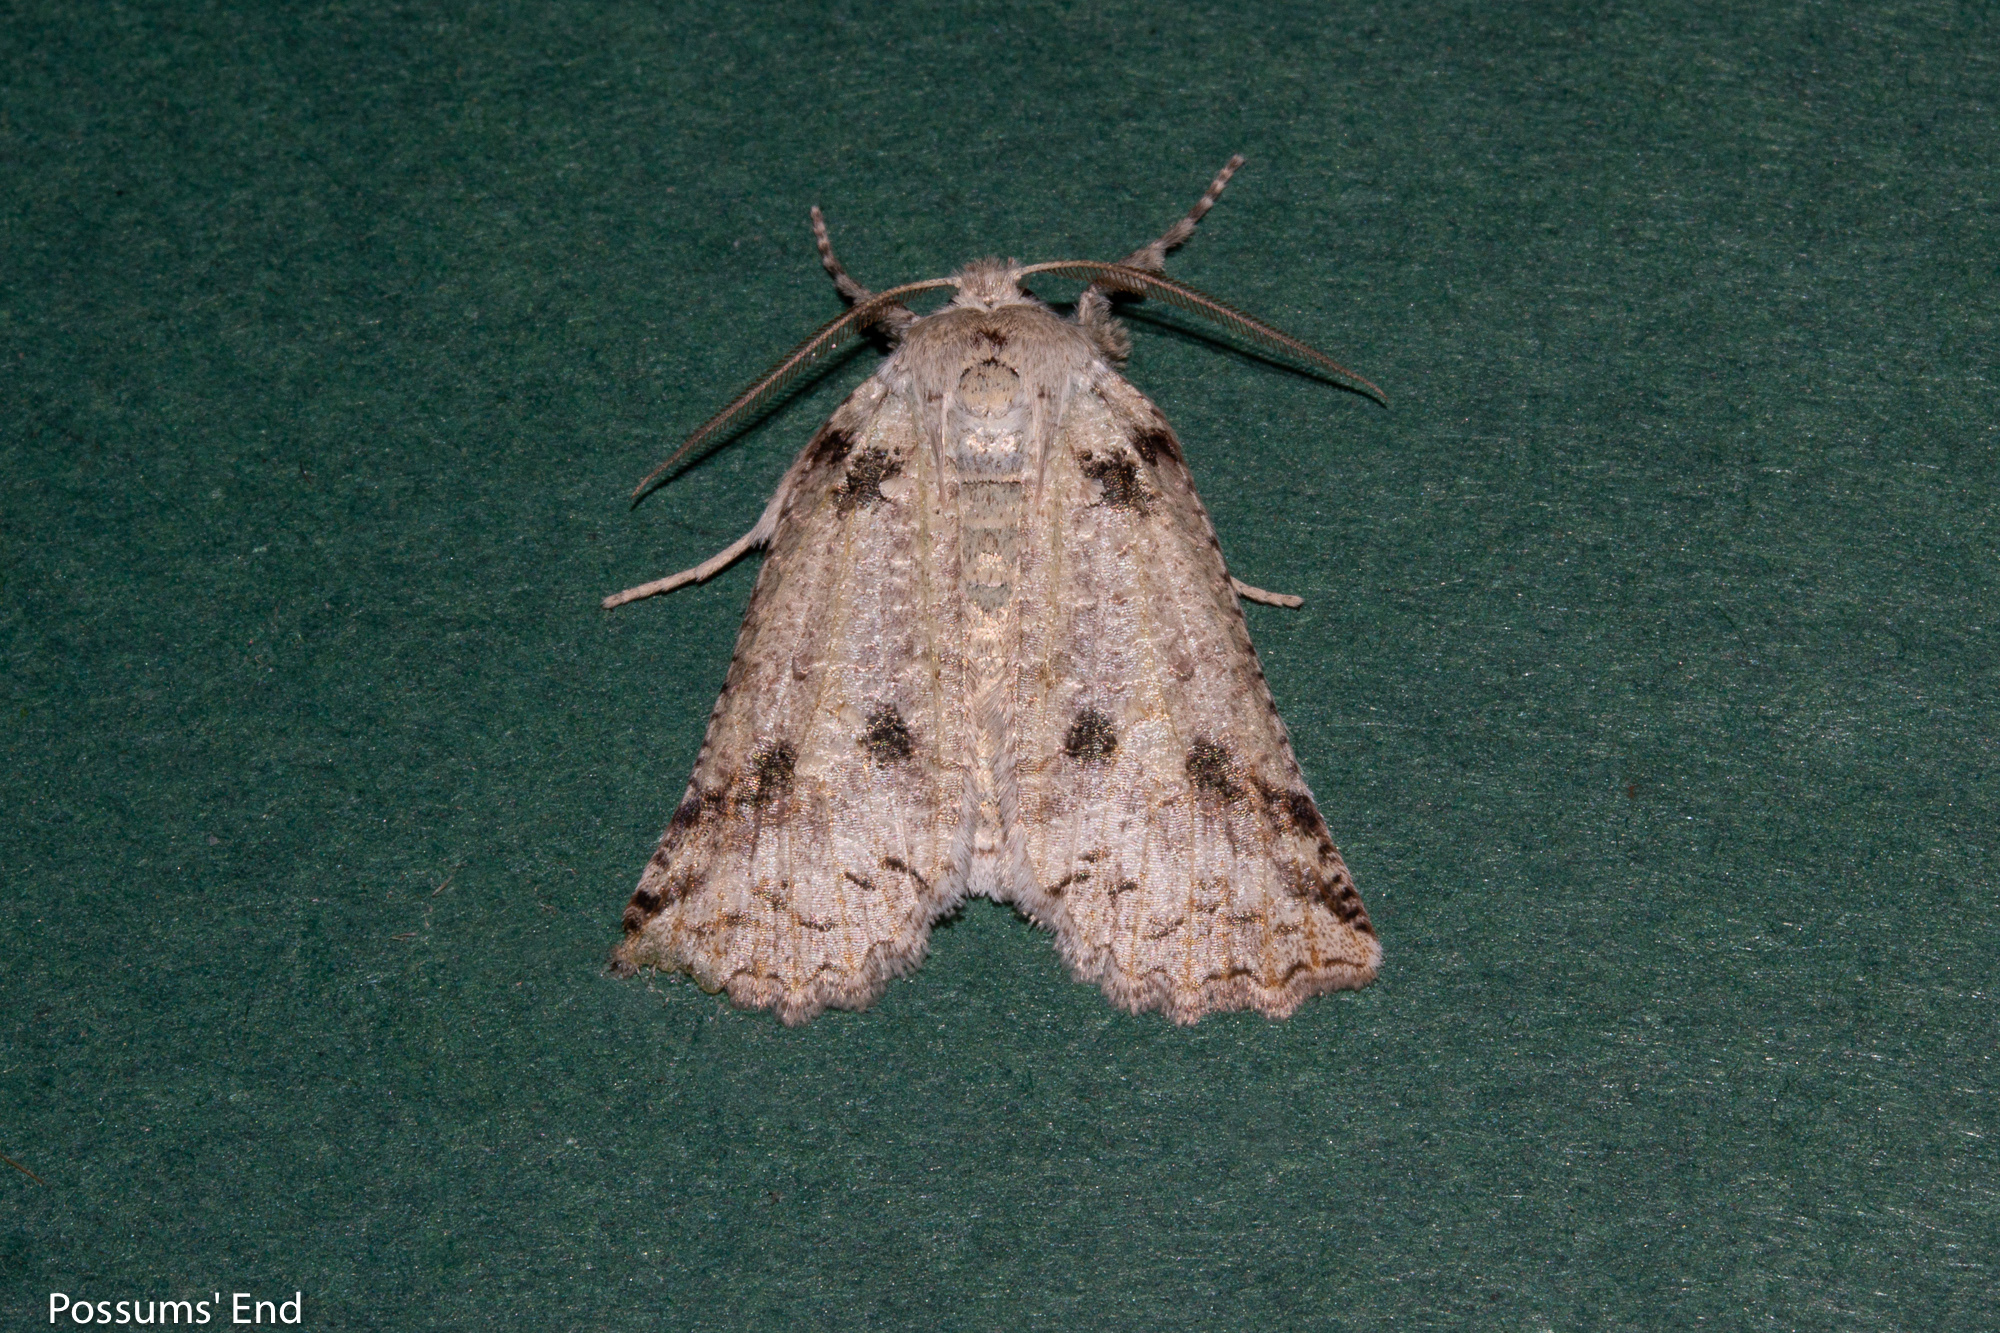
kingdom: Animalia
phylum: Arthropoda
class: Insecta
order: Lepidoptera
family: Geometridae
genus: Declana
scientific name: Declana floccosa
